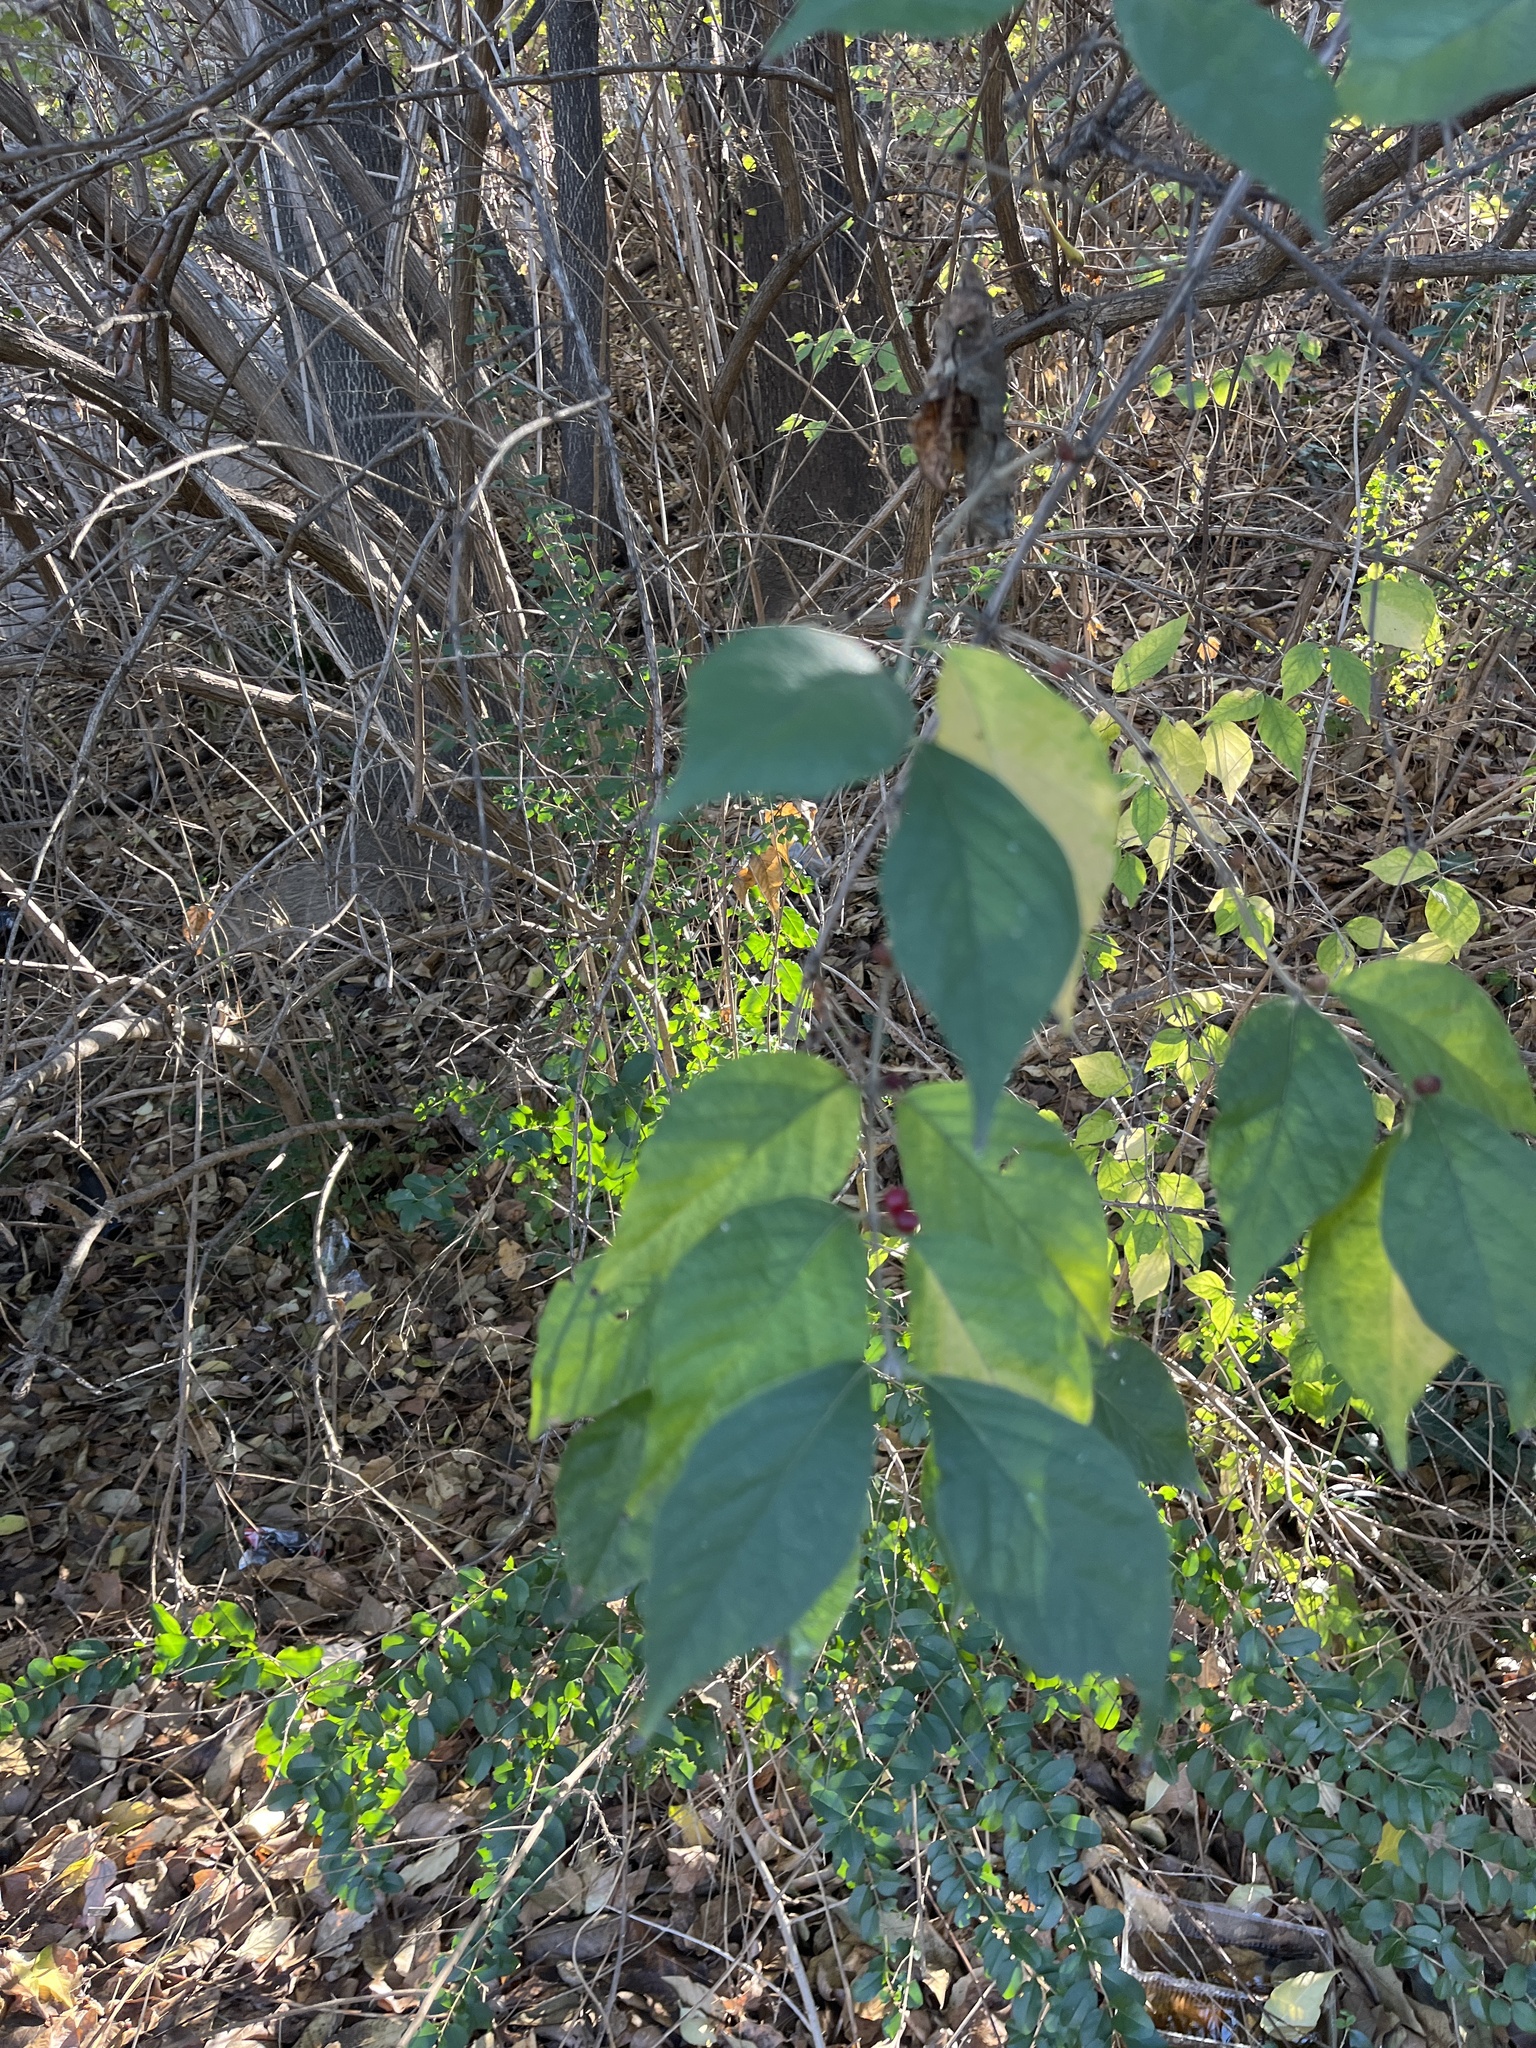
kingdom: Plantae
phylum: Tracheophyta
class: Magnoliopsida
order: Dipsacales
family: Caprifoliaceae
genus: Lonicera
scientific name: Lonicera maackii
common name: Amur honeysuckle
